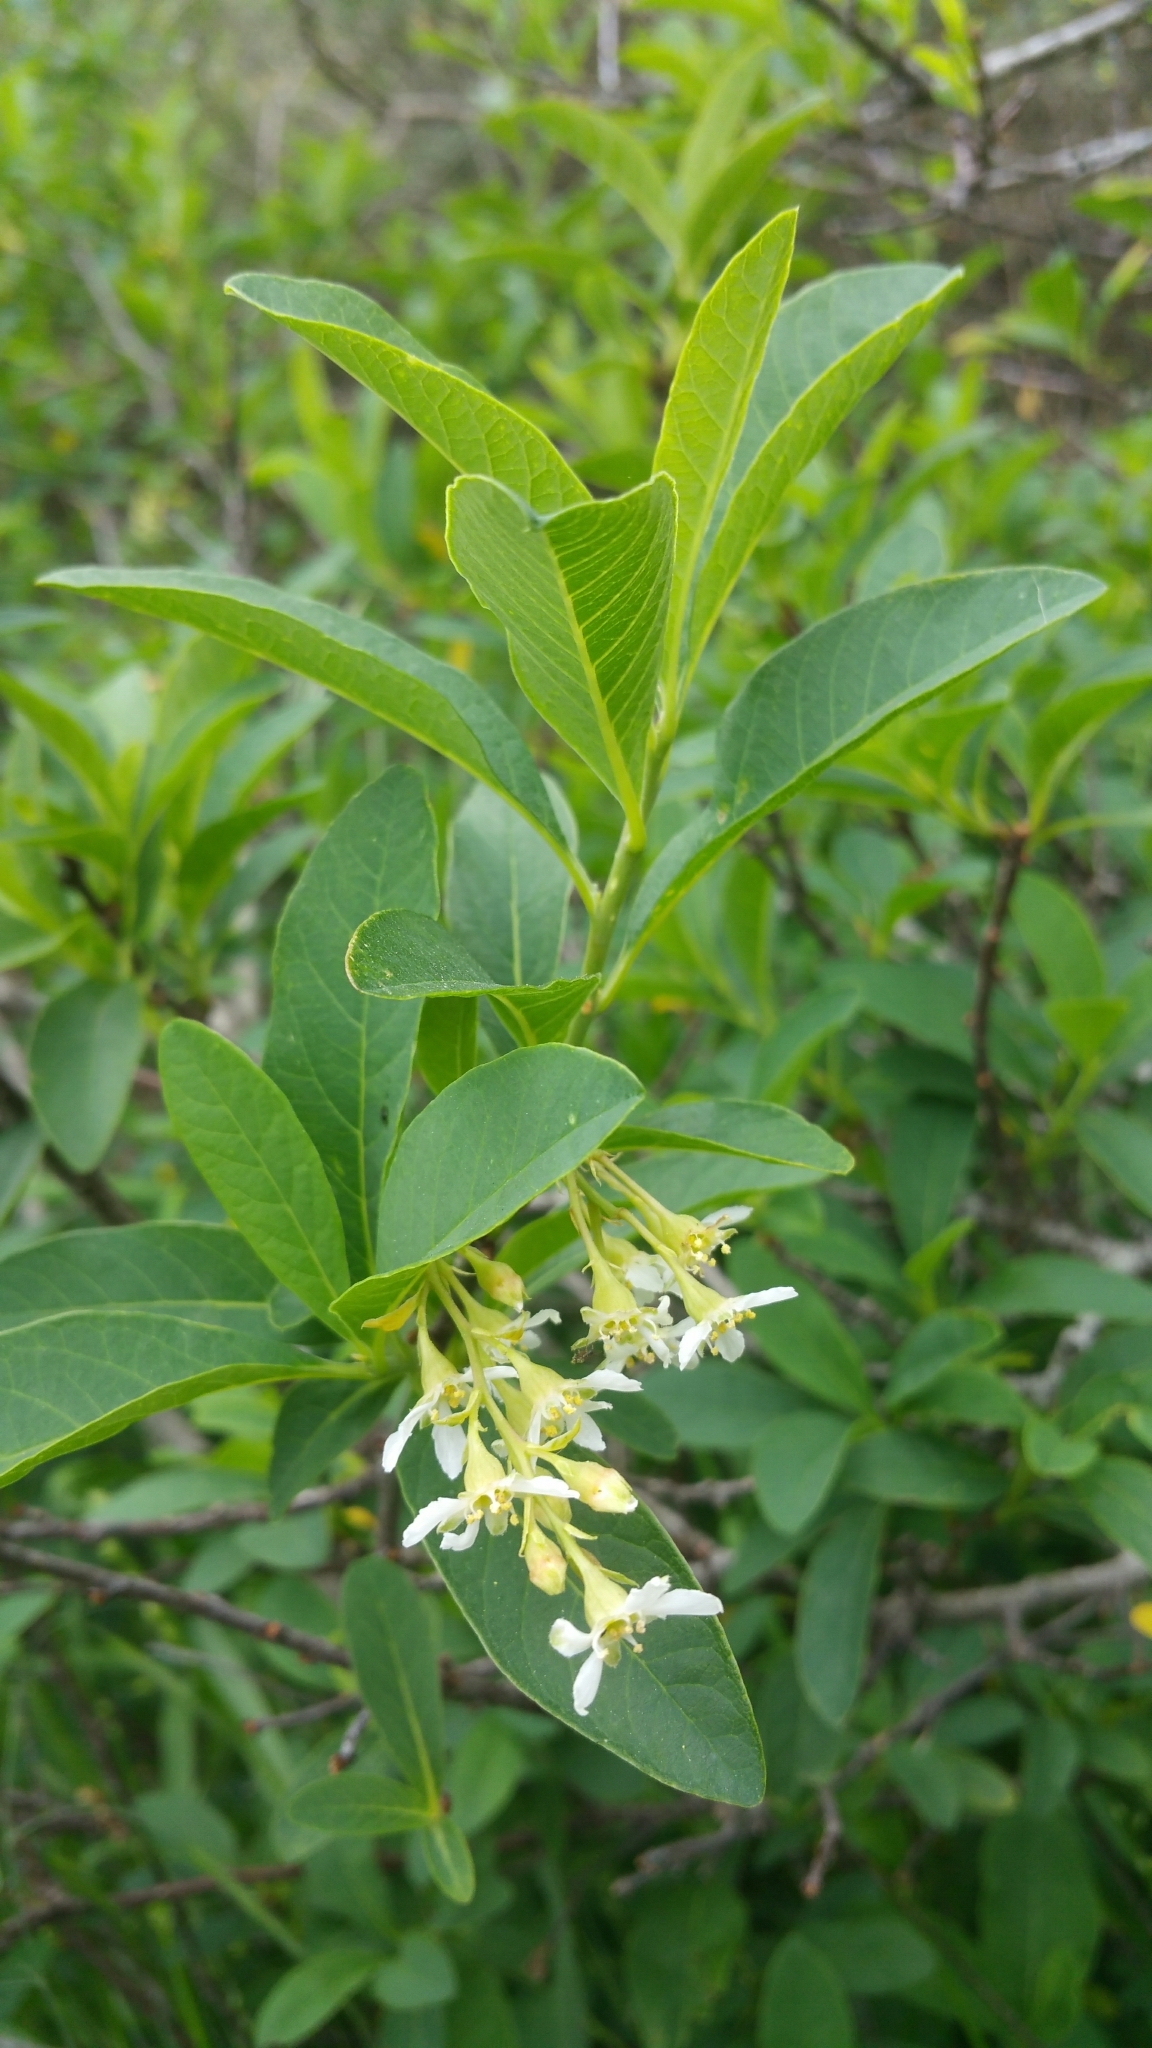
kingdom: Plantae
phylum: Tracheophyta
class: Magnoliopsida
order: Rosales
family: Rosaceae
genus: Oemleria
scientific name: Oemleria cerasiformis
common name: Osoberry
